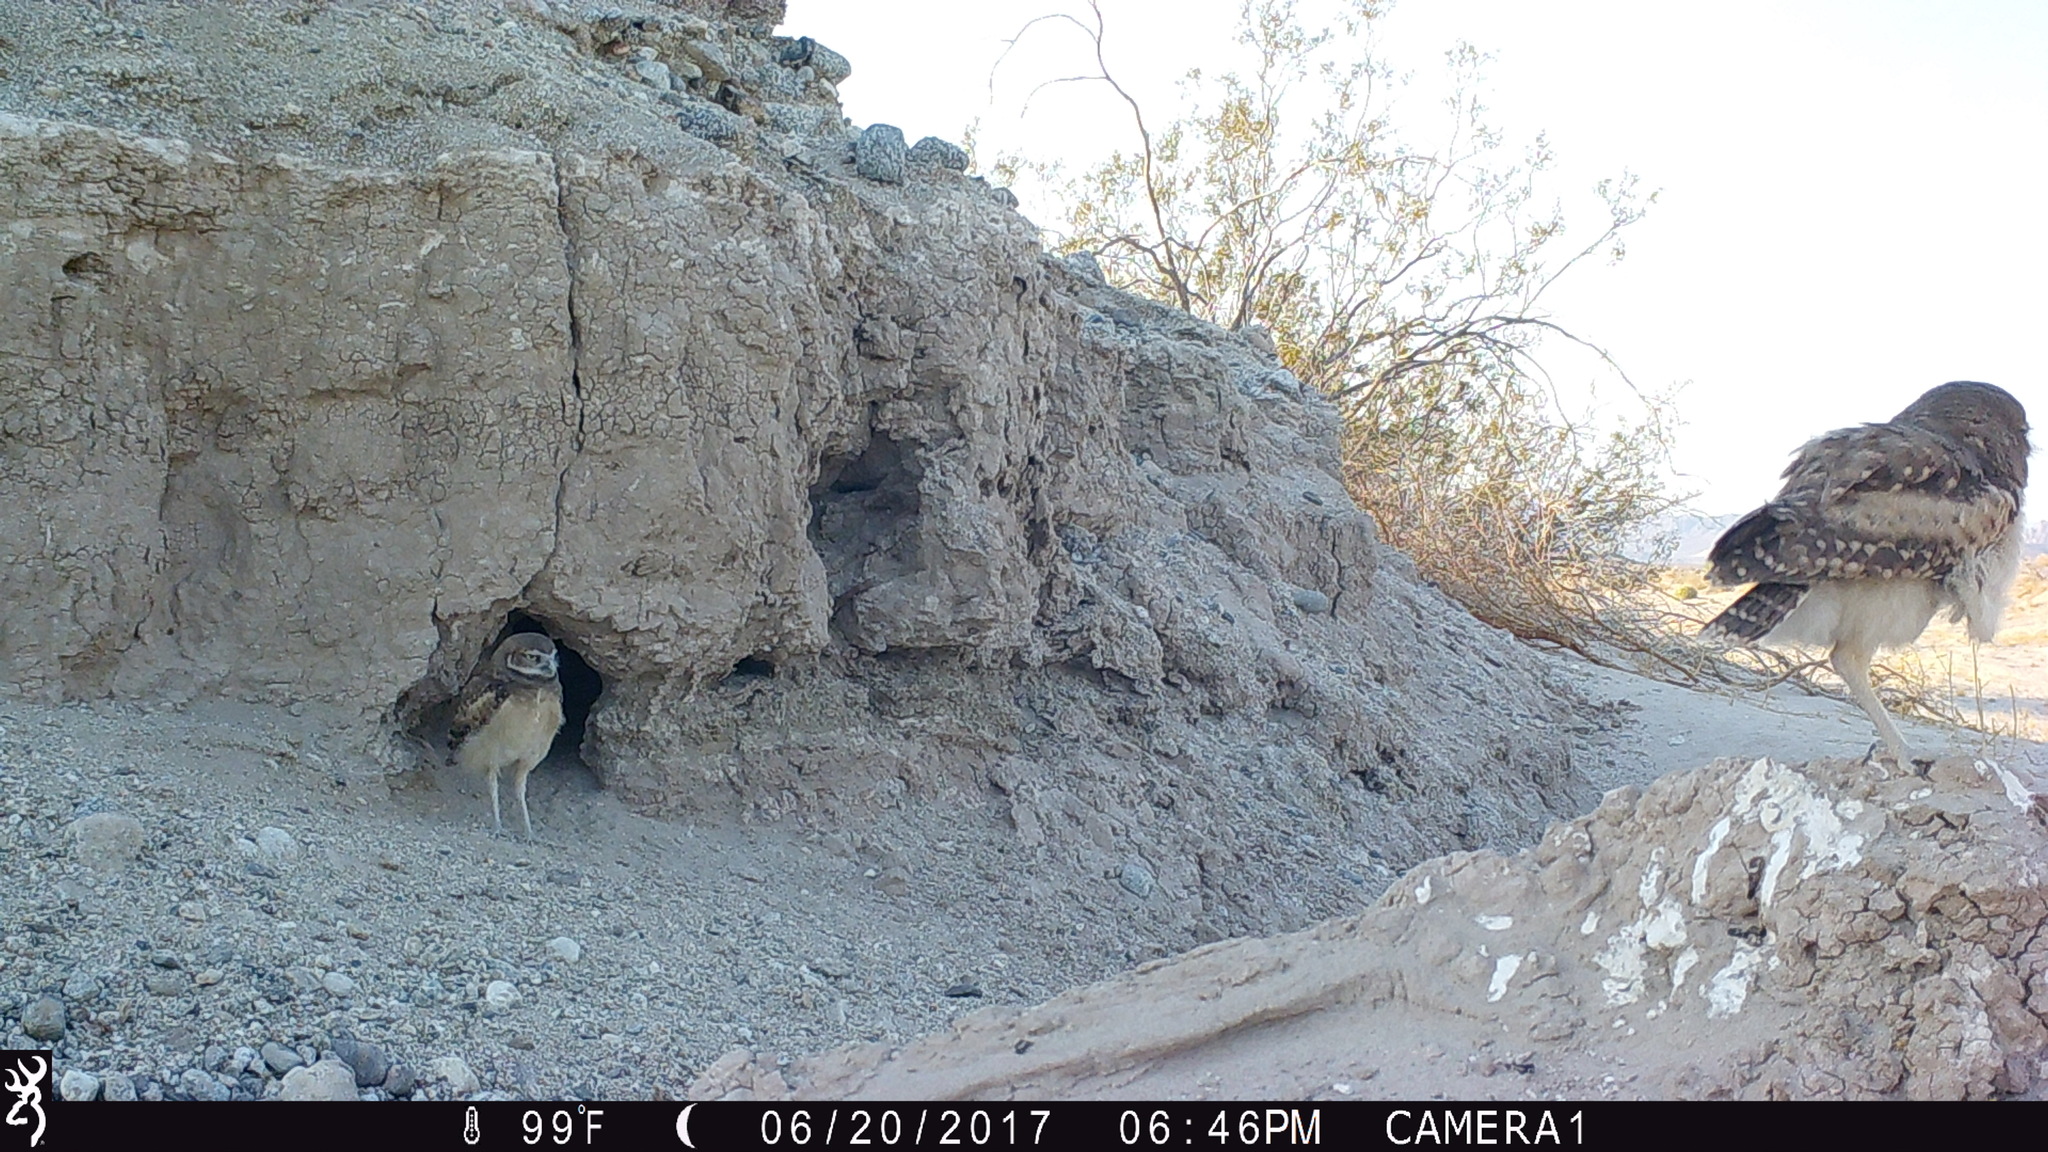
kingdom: Animalia
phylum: Chordata
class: Aves
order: Strigiformes
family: Strigidae
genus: Athene
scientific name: Athene cunicularia
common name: Burrowing owl
